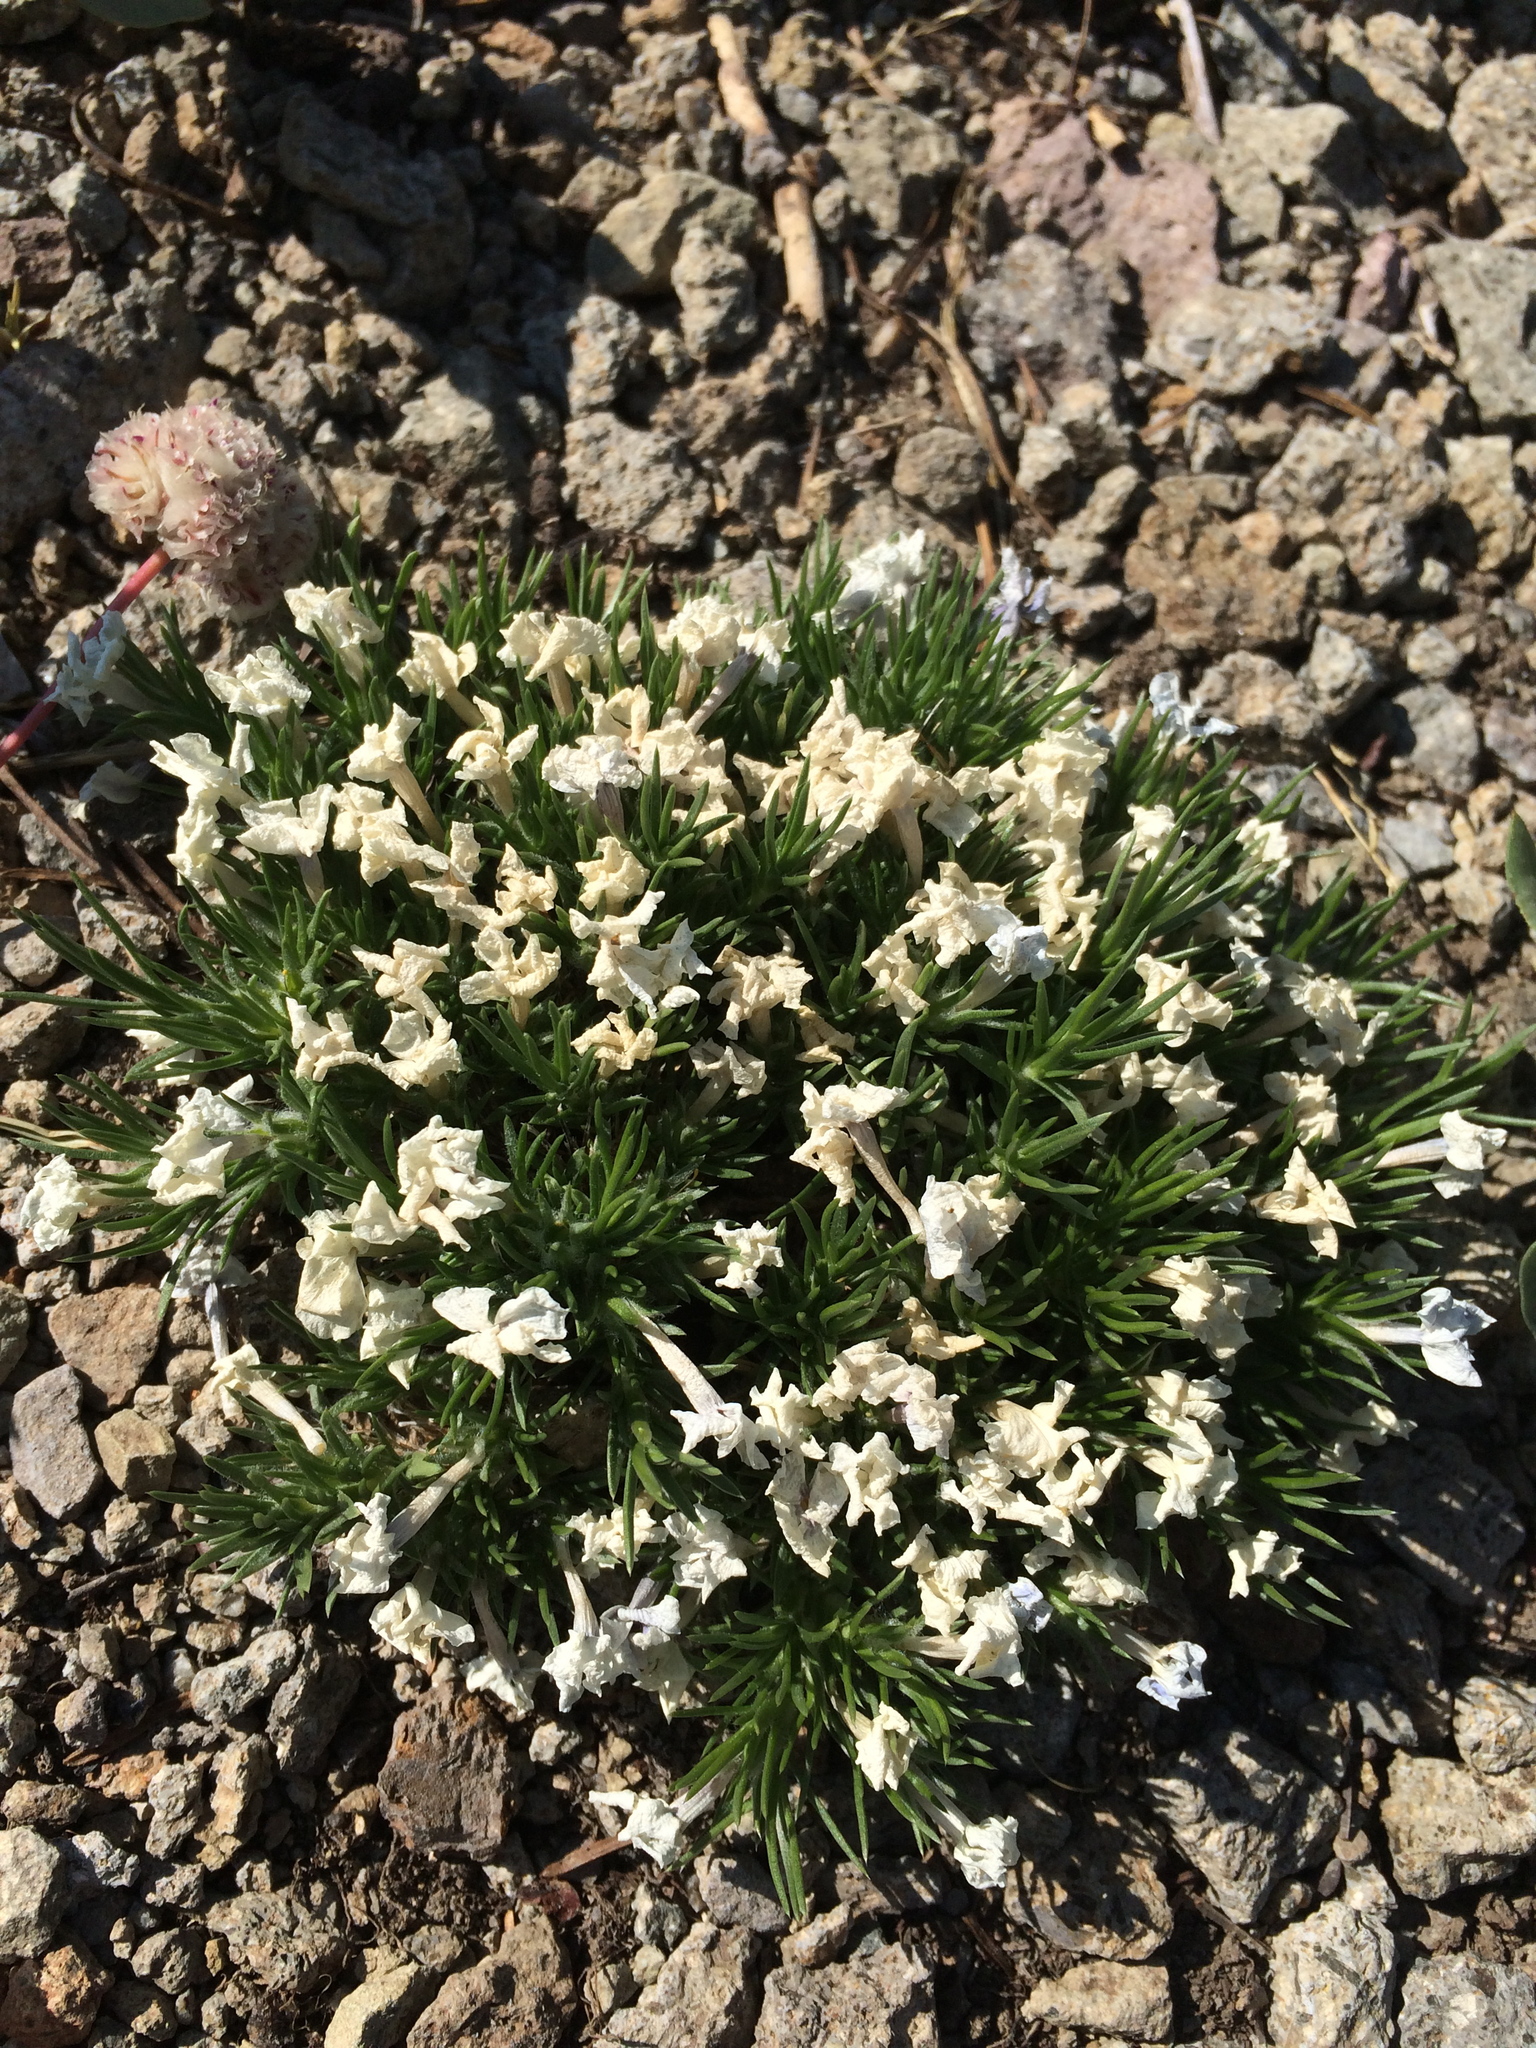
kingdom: Plantae
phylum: Tracheophyta
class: Magnoliopsida
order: Ericales
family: Polemoniaceae
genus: Phlox
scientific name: Phlox diffusa
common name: Mat phlox
